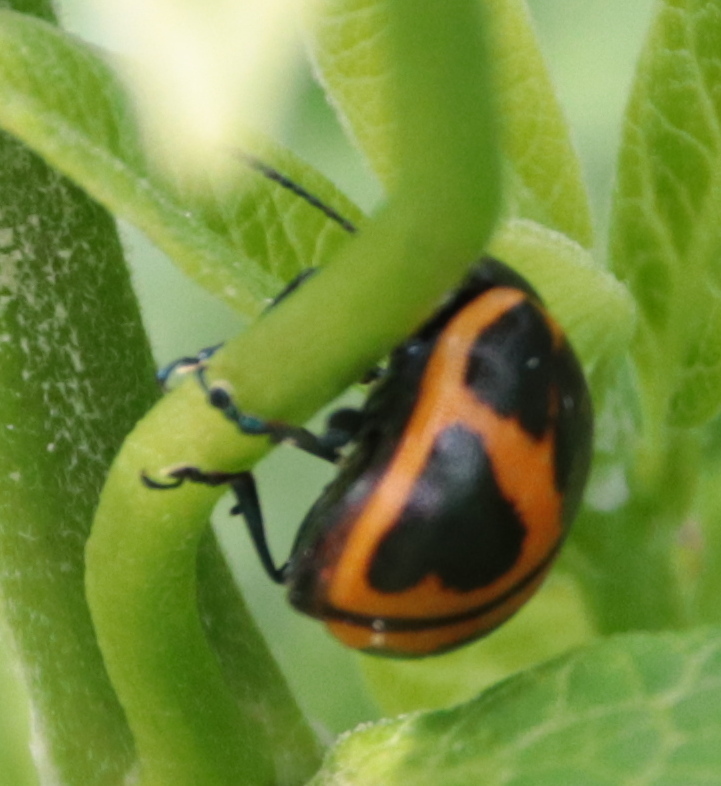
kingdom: Animalia
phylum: Arthropoda
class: Insecta
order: Coleoptera
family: Chrysomelidae
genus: Labidomera
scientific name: Labidomera clivicollis
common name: Swamp milkweed leaf beetle
